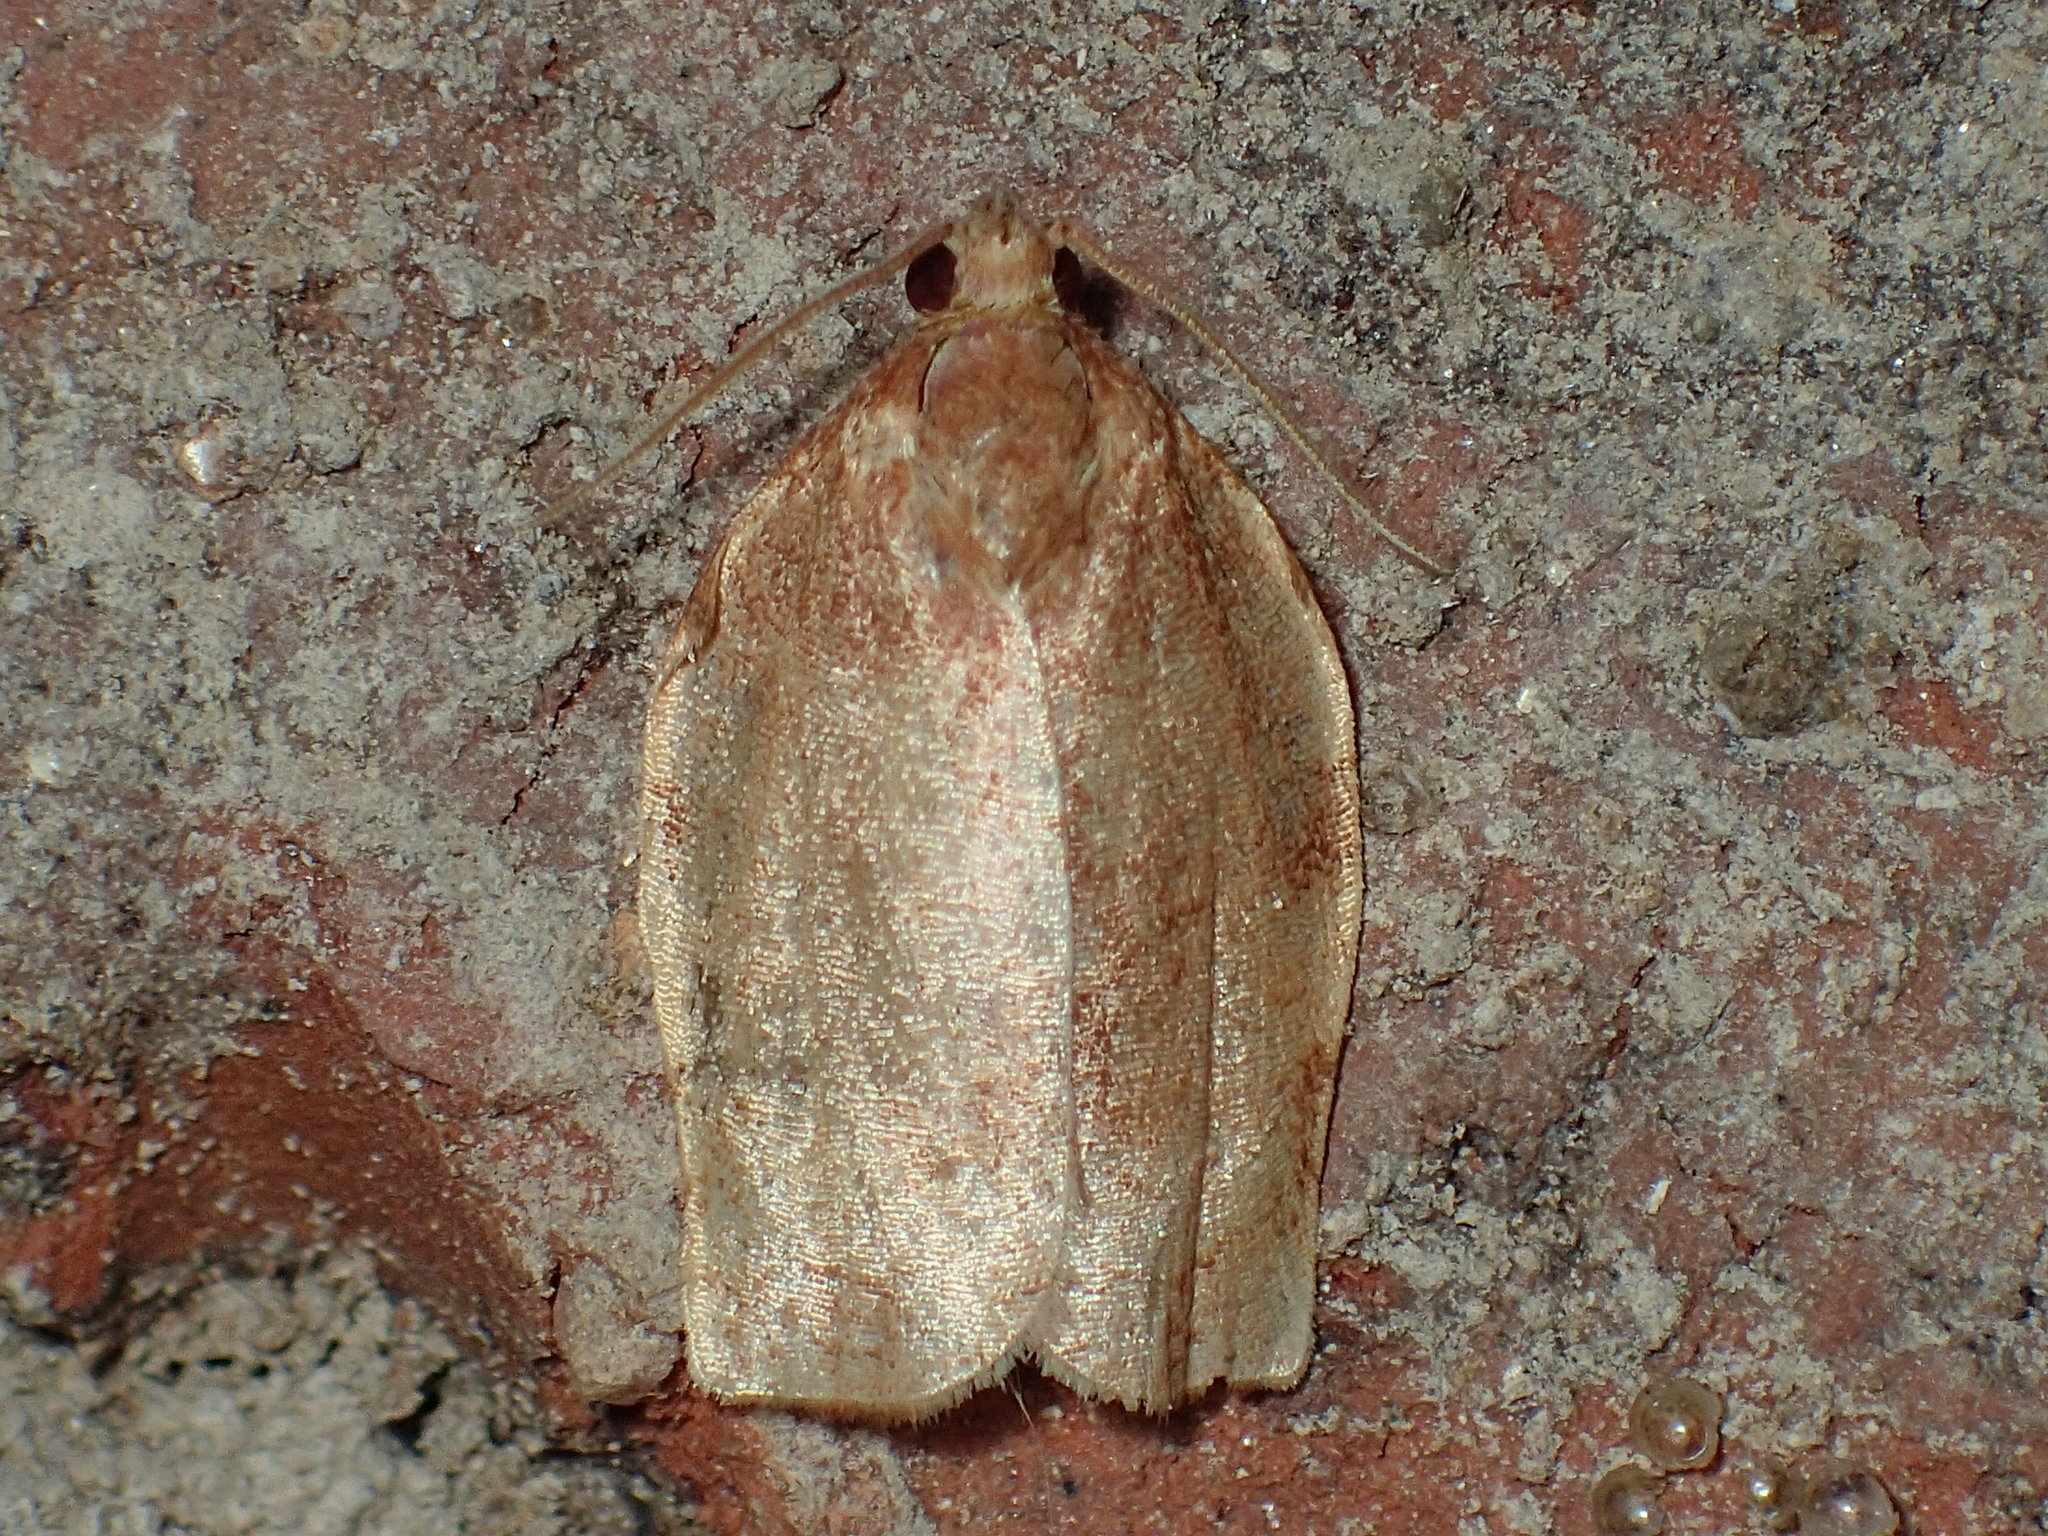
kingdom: Animalia
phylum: Arthropoda
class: Insecta
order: Lepidoptera
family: Tortricidae
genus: Choristoneura
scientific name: Choristoneura rosaceana
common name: Oblique-banded leafroller moth
